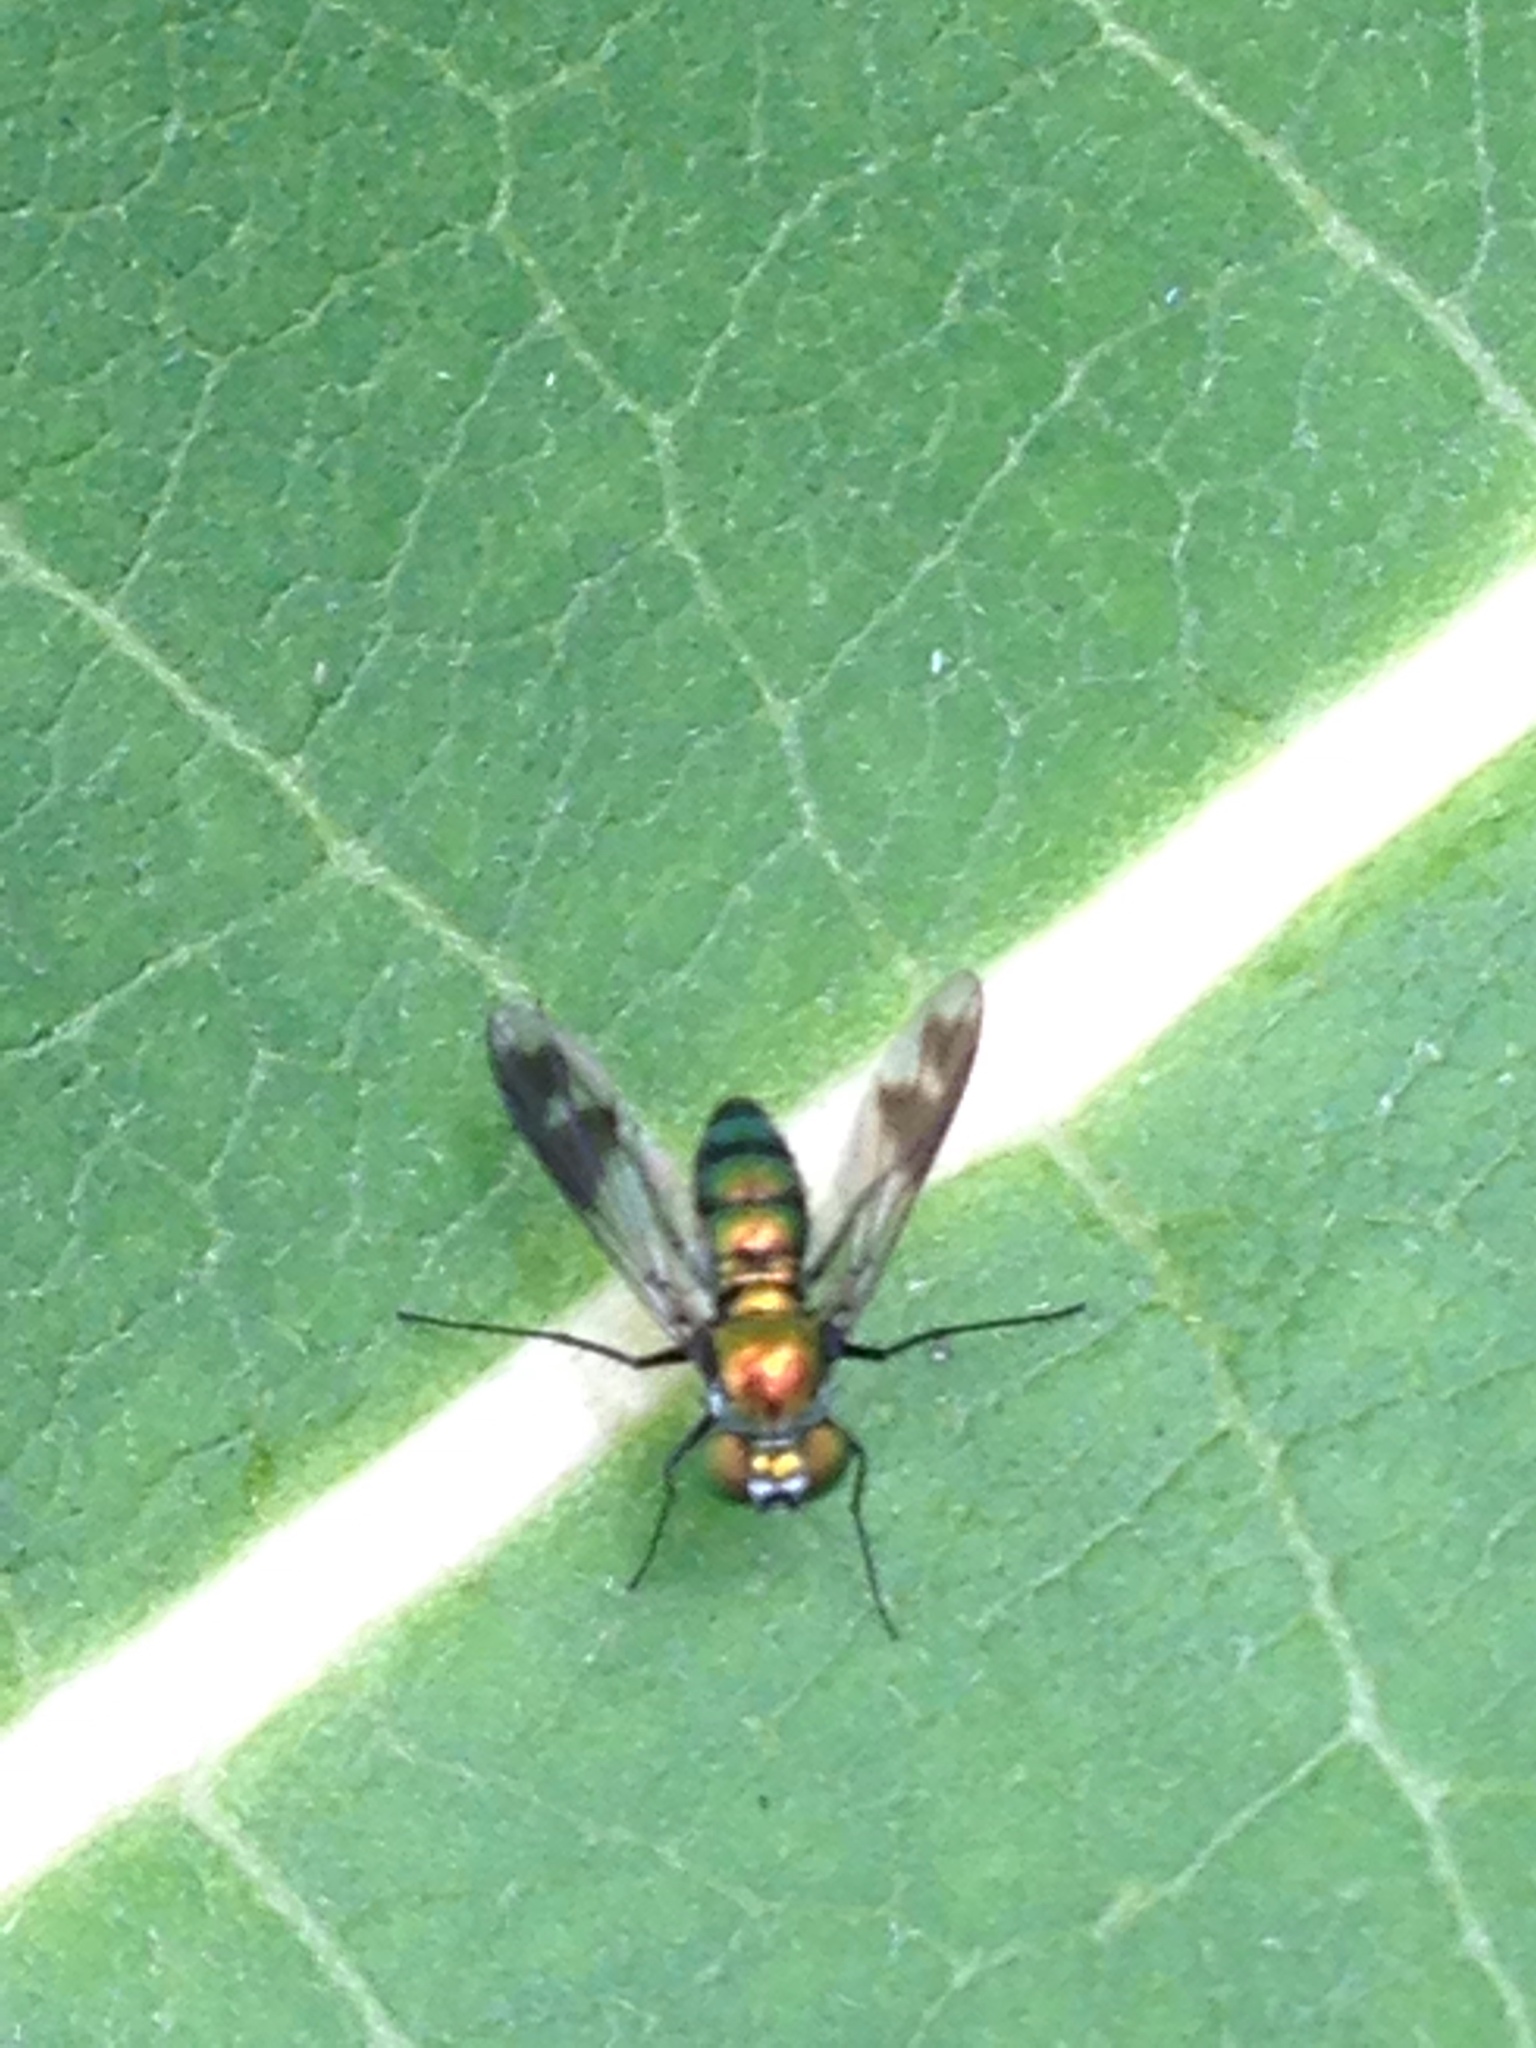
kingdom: Animalia
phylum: Arthropoda
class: Insecta
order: Diptera
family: Dolichopodidae
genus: Condylostylus
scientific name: Condylostylus patibulatus
